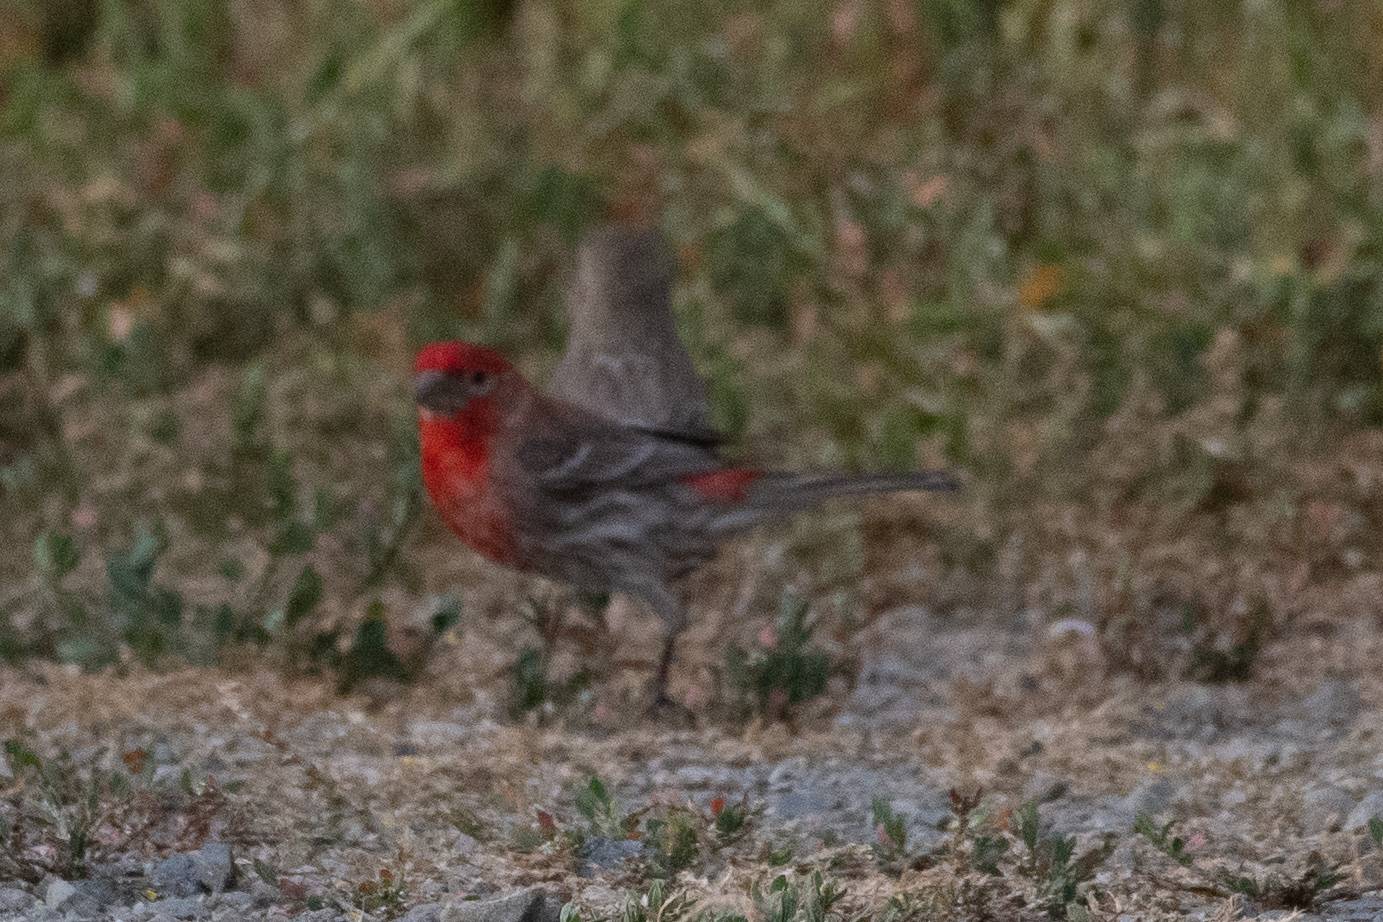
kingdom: Animalia
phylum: Chordata
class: Aves
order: Passeriformes
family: Fringillidae
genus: Haemorhous
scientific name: Haemorhous mexicanus
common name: House finch
